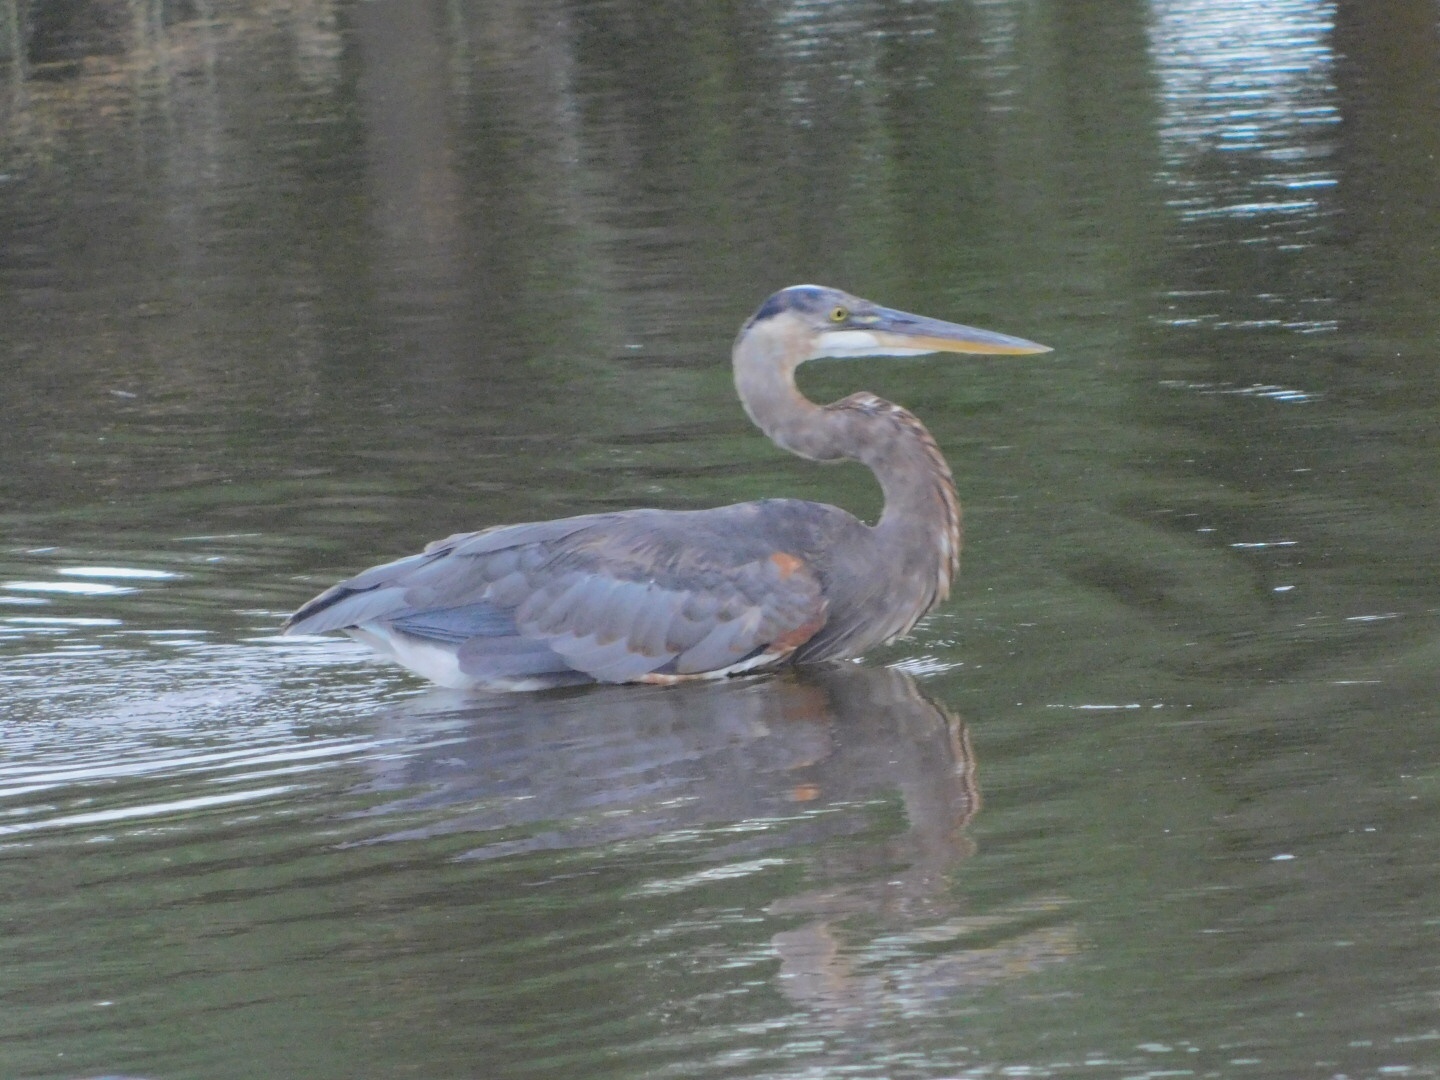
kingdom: Animalia
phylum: Chordata
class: Aves
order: Pelecaniformes
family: Ardeidae
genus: Ardea
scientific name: Ardea herodias
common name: Great blue heron
